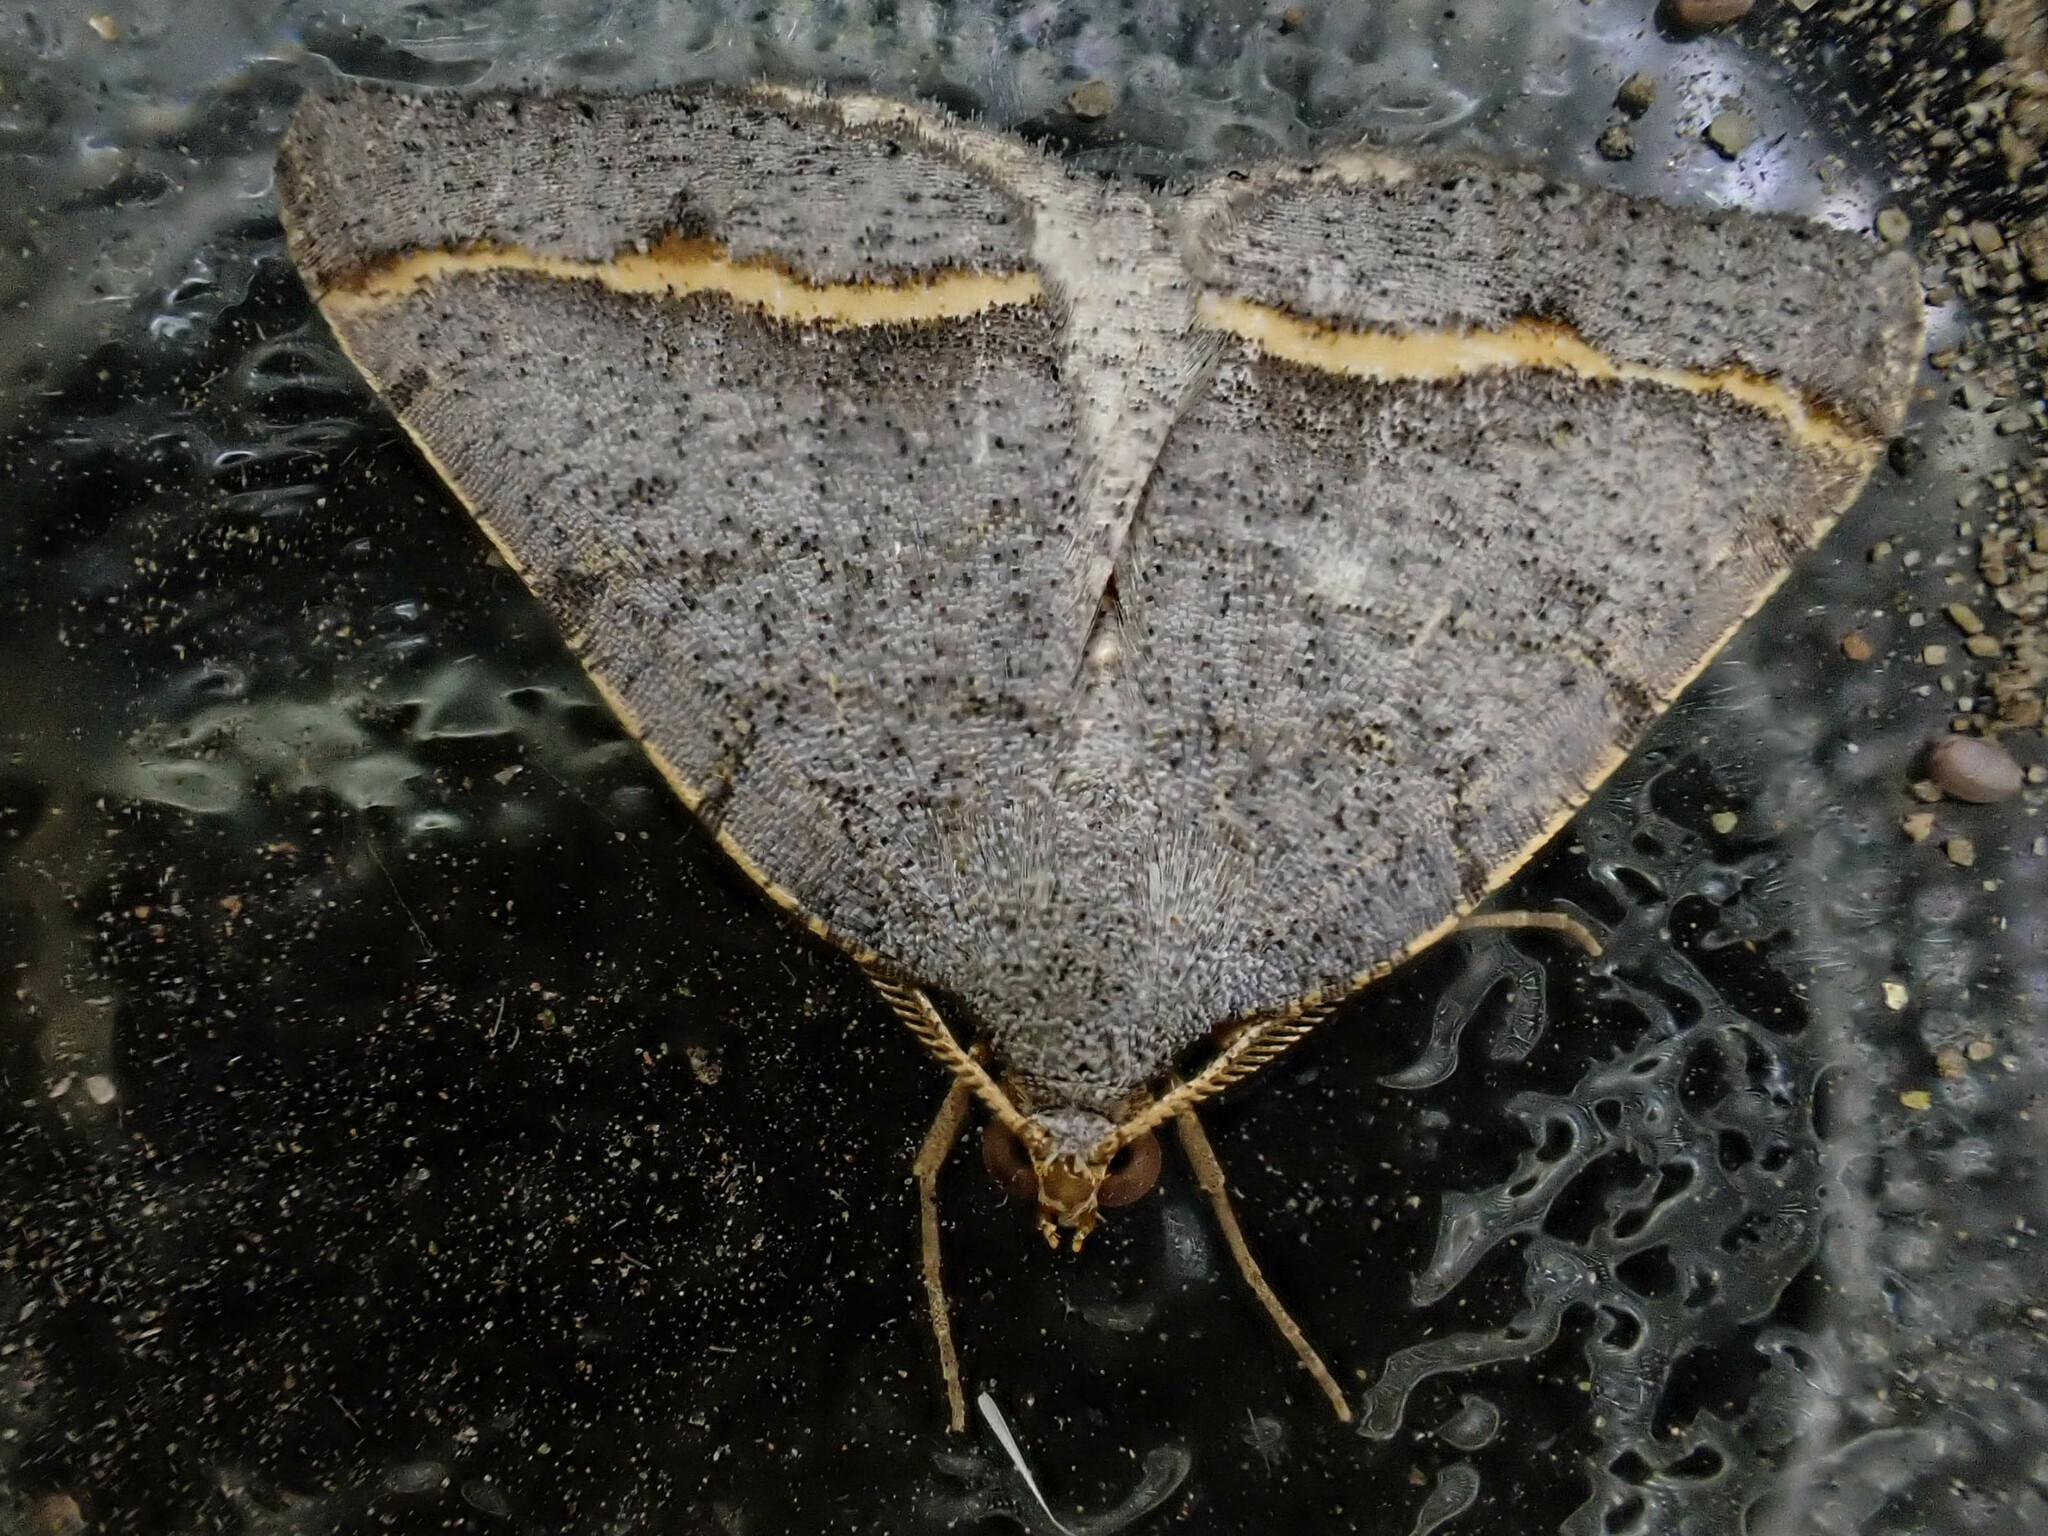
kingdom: Animalia
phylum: Arthropoda
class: Insecta
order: Lepidoptera
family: Geometridae
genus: Macaria
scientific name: Macaria austrinata
